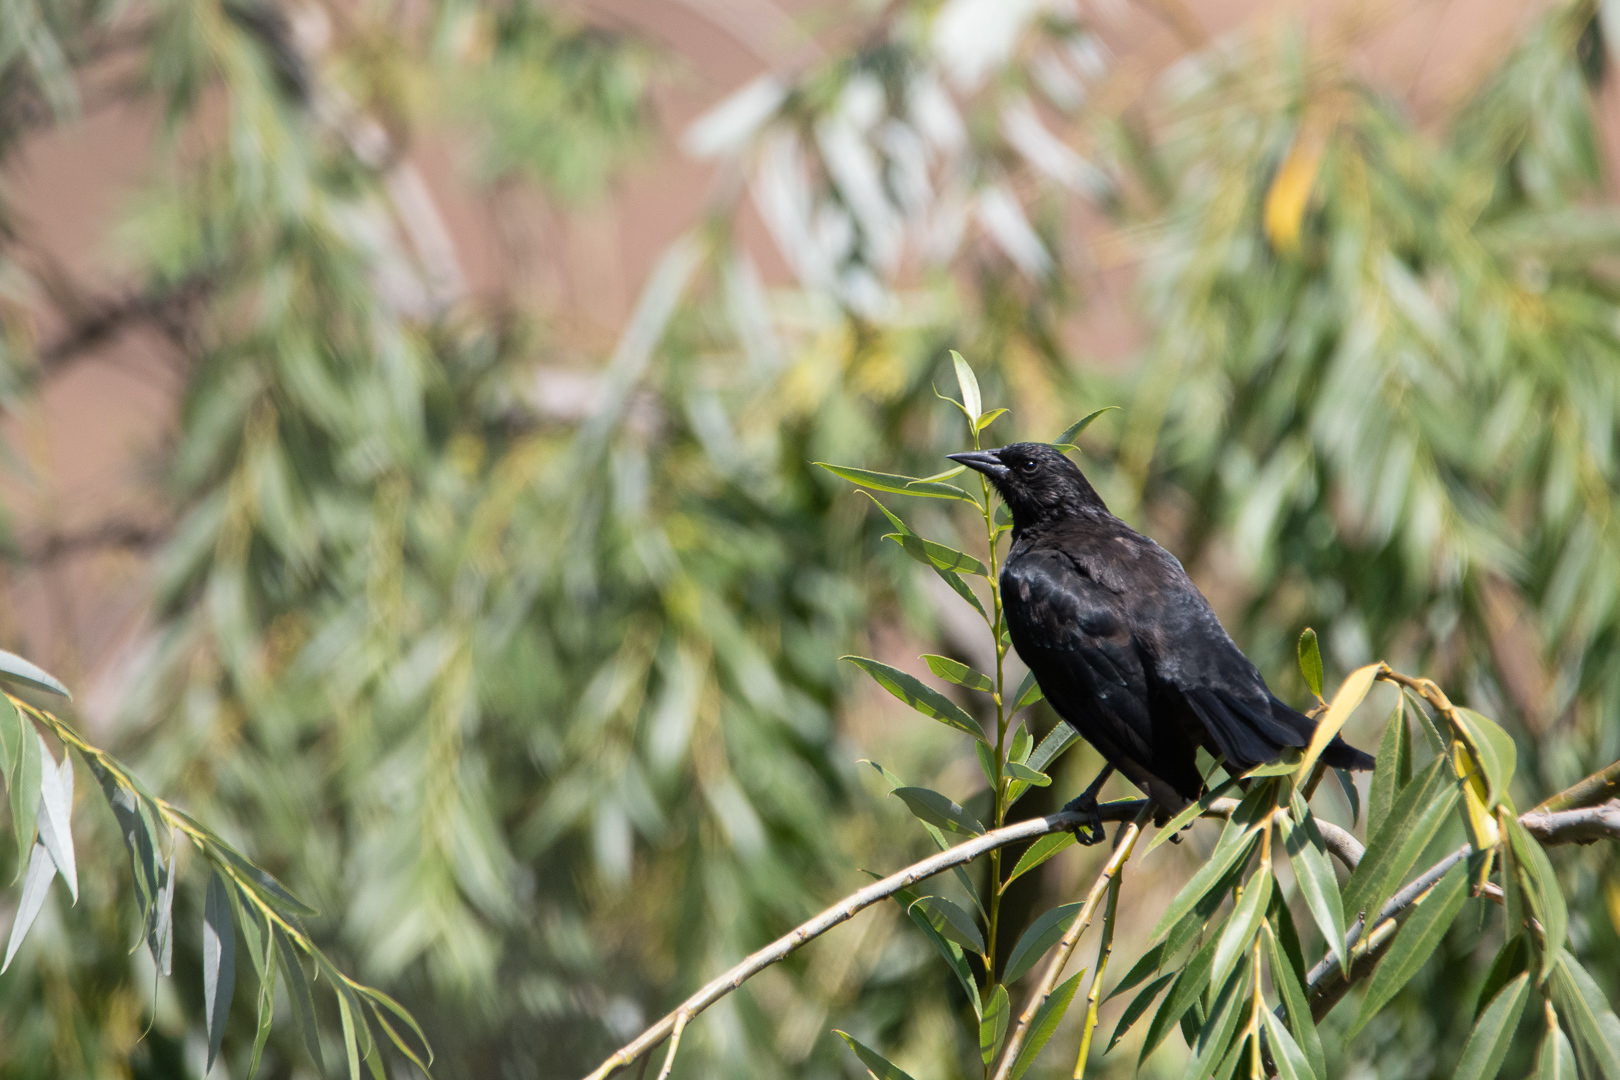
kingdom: Animalia
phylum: Chordata
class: Aves
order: Passeriformes
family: Icteridae
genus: Curaeus
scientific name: Curaeus curaeus
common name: Austral blackbird
